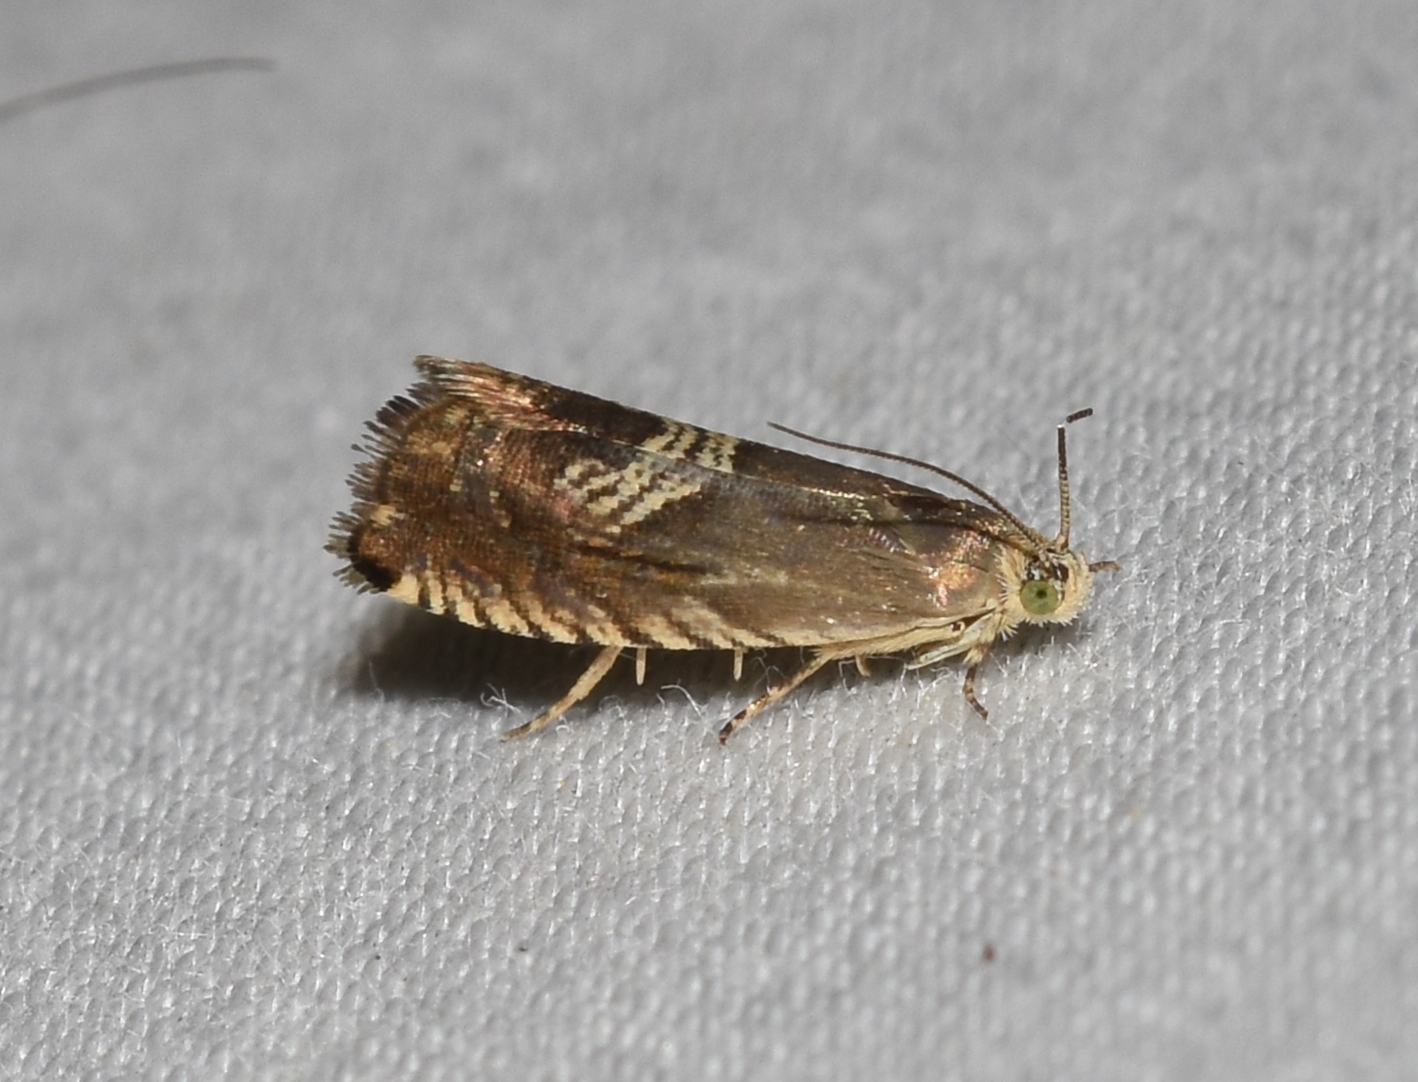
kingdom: Animalia
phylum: Arthropoda
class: Insecta
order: Lepidoptera
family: Tortricidae
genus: Grapholita
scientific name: Grapholita interstinctana
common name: Clover head caterpillar moth
